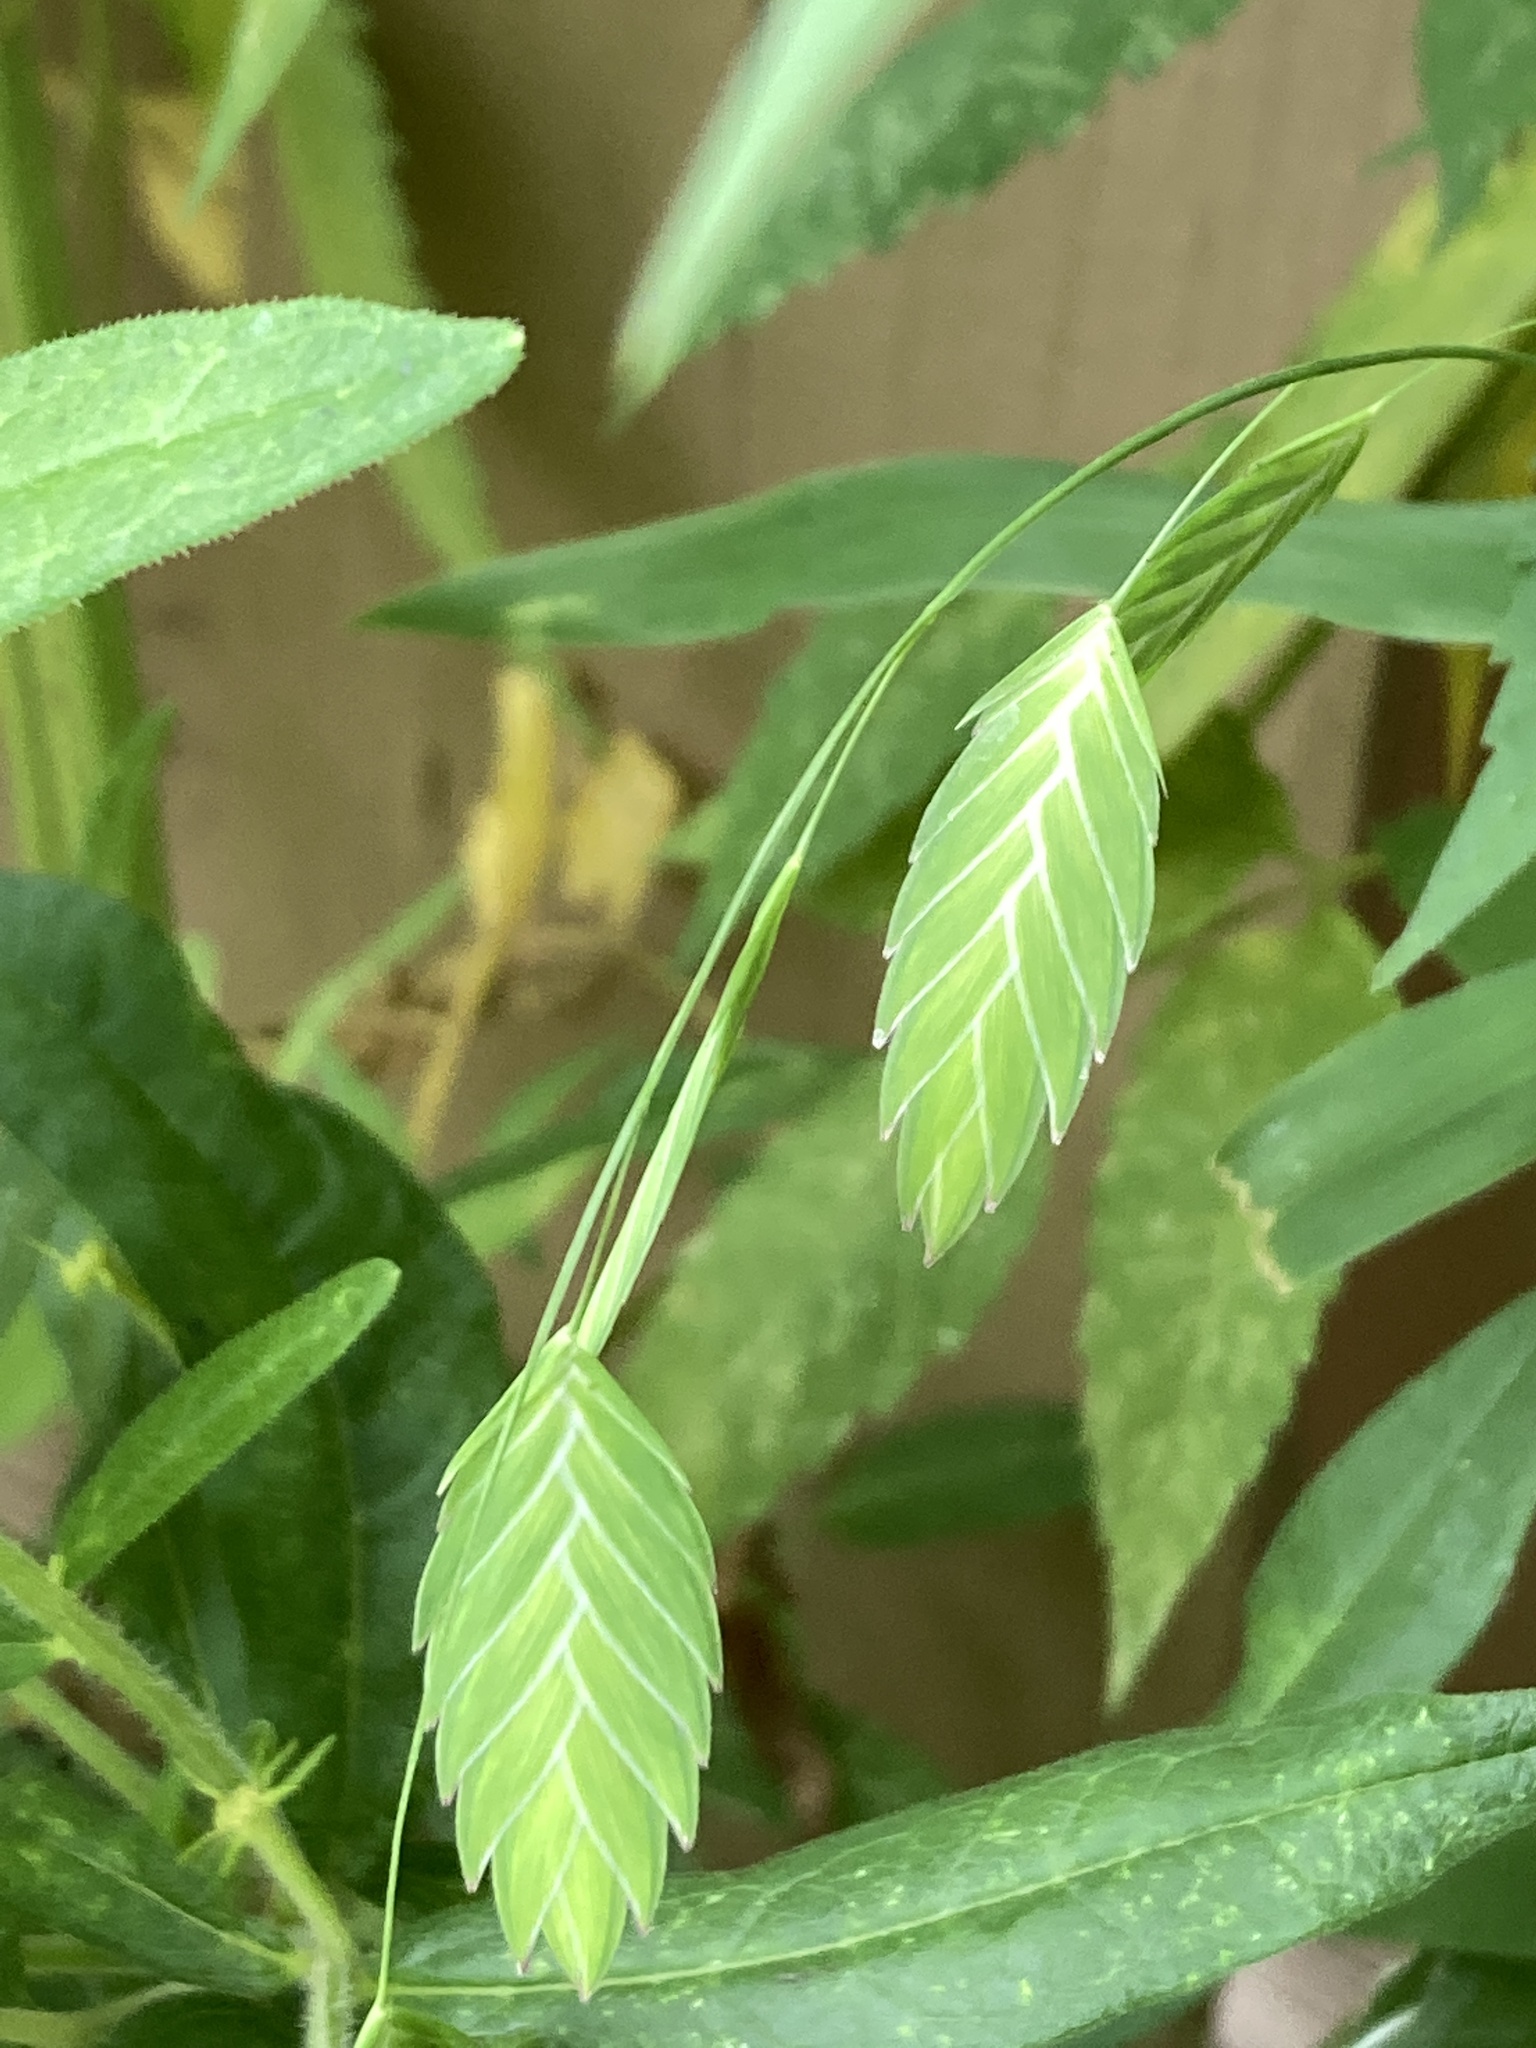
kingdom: Plantae
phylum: Tracheophyta
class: Liliopsida
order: Poales
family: Poaceae
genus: Chasmanthium
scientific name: Chasmanthium latifolium
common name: Broad-leaved chasmanthium
